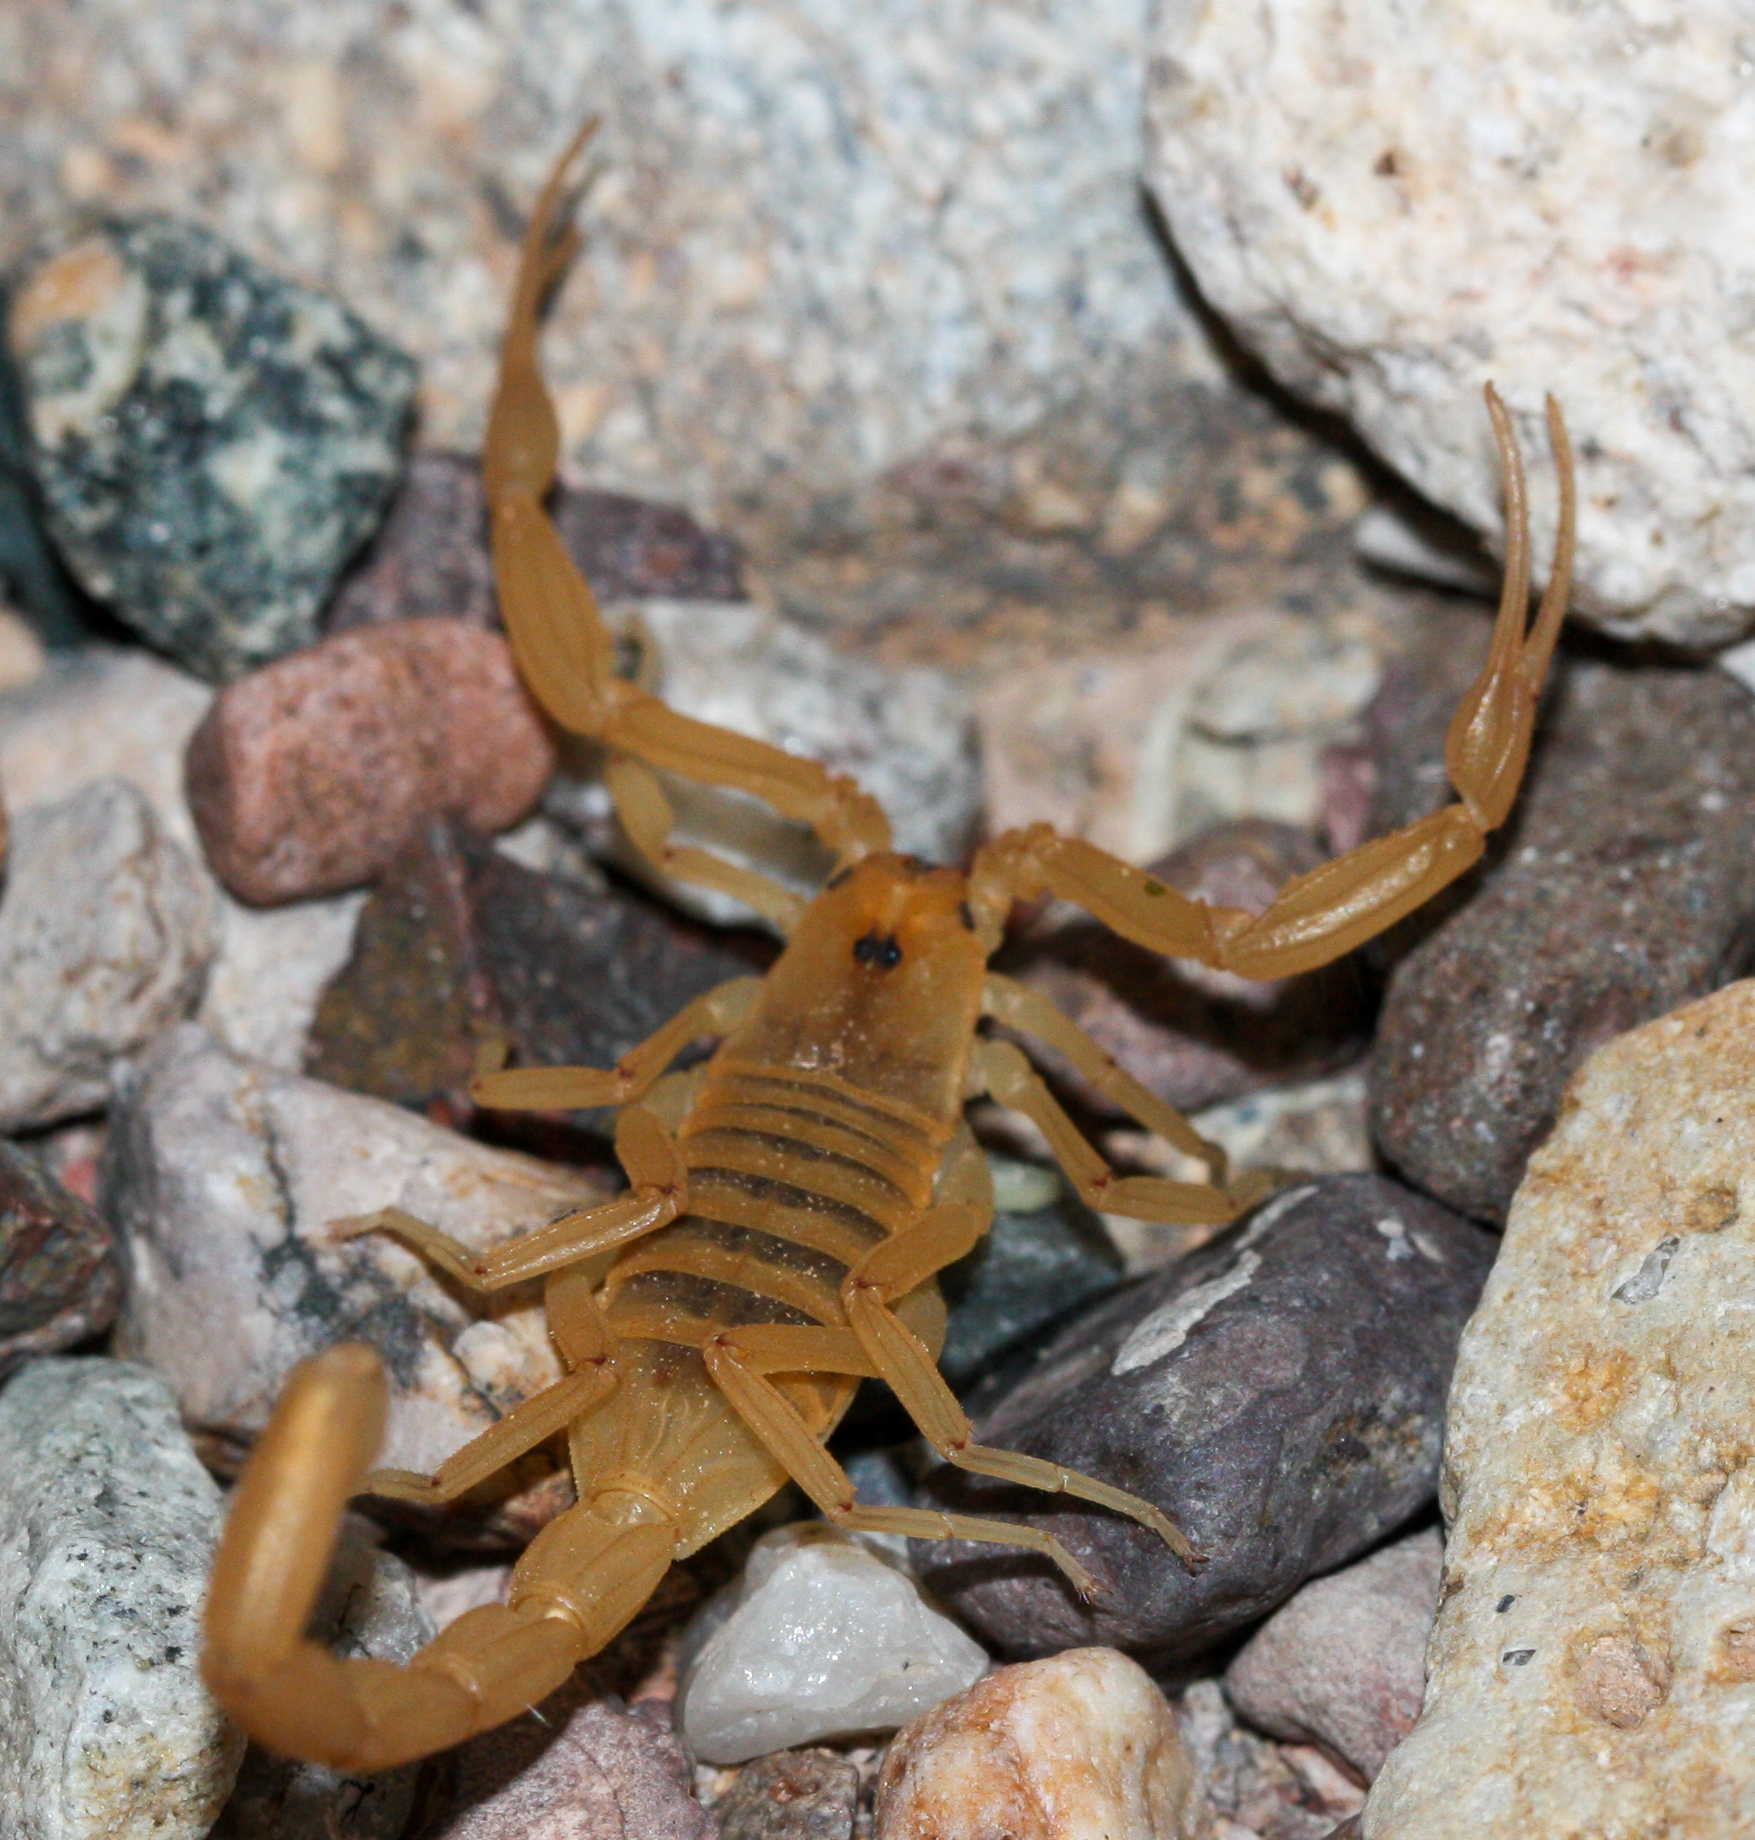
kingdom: Animalia
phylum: Arthropoda
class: Arachnida
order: Scorpiones
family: Buthidae
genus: Centruroides
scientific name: Centruroides sculpturatus
